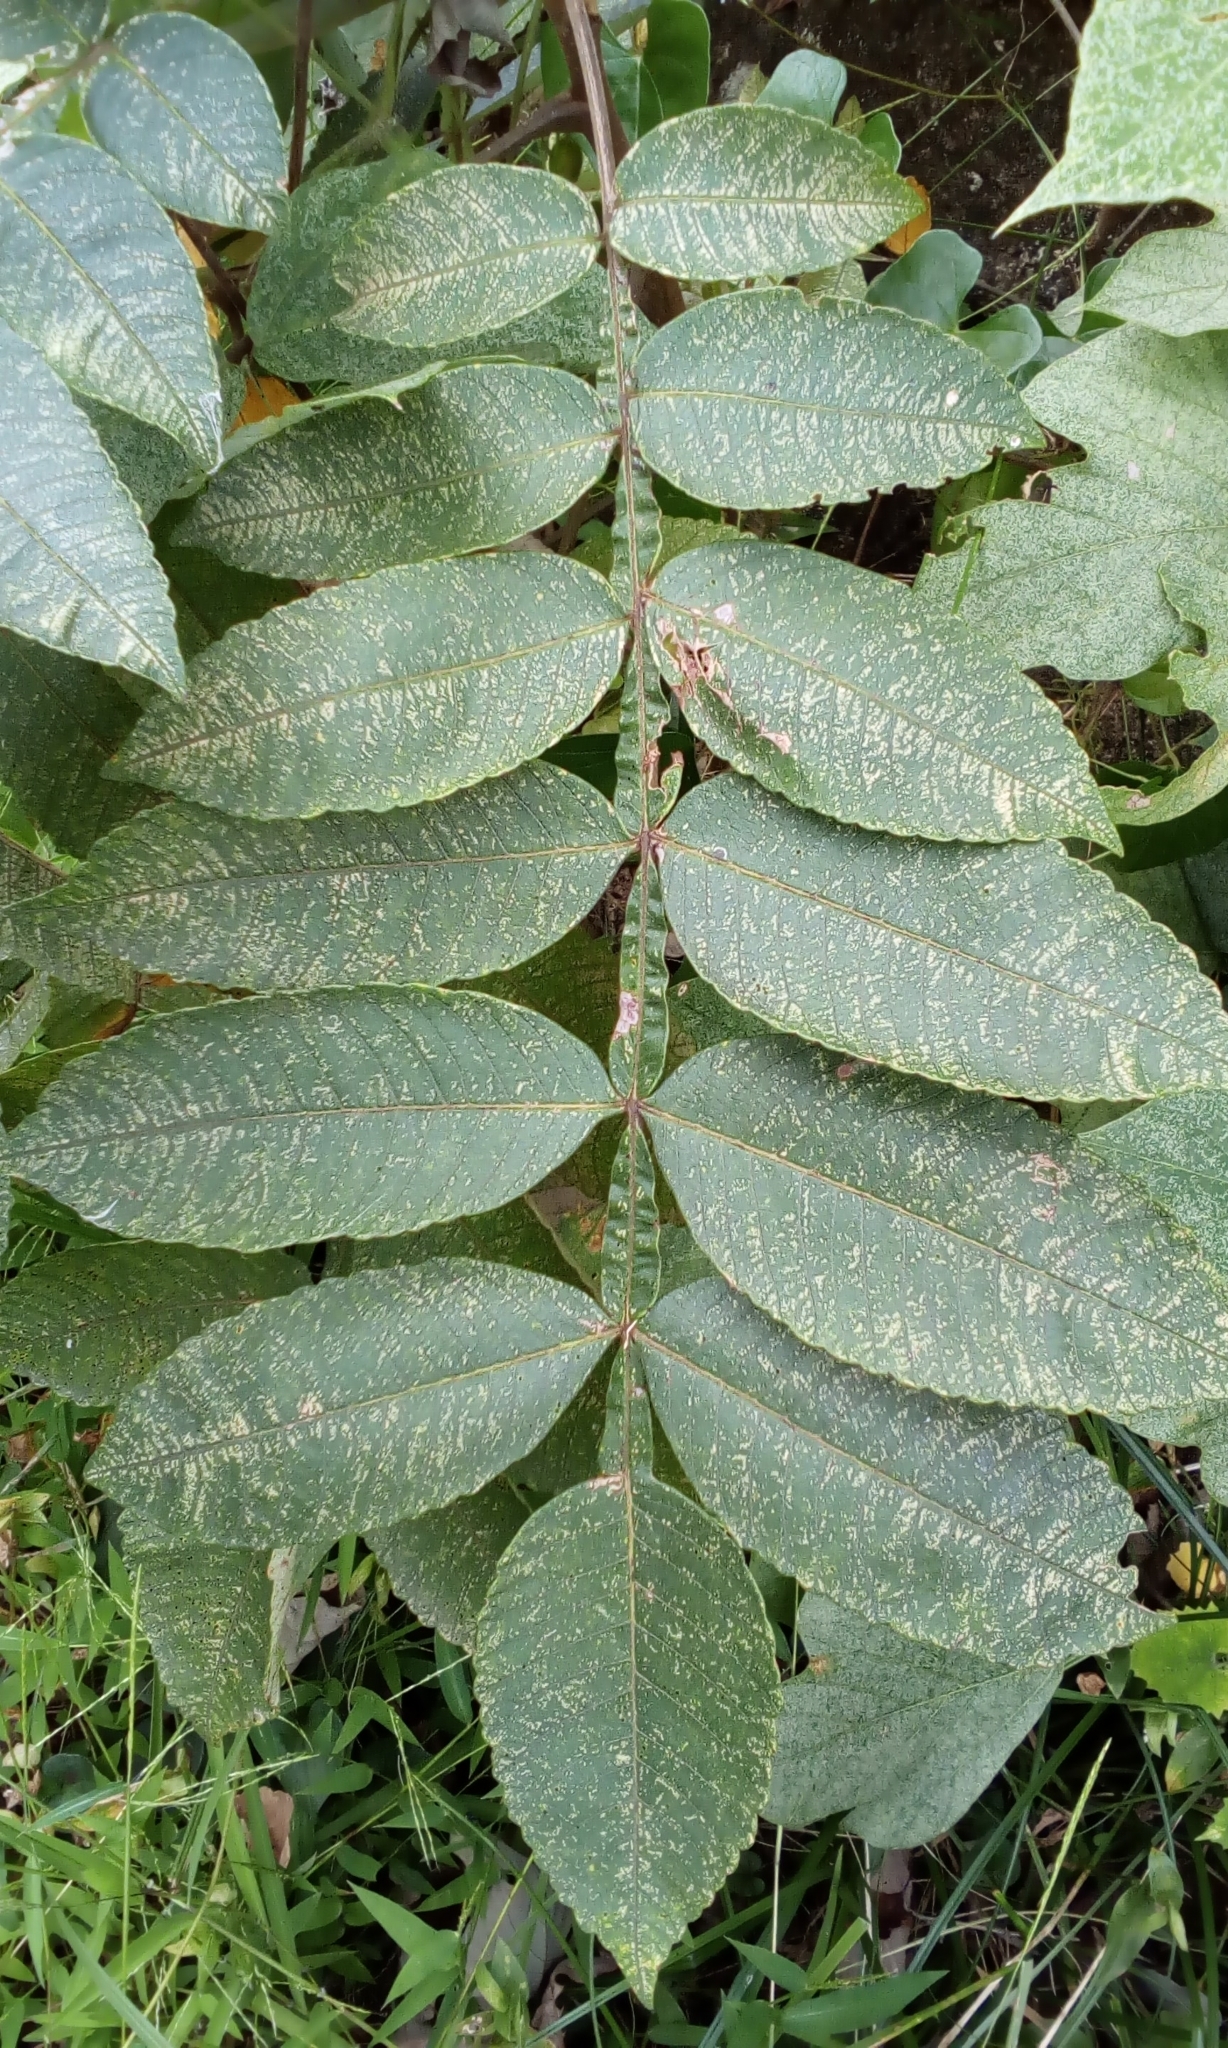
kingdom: Plantae
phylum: Tracheophyta
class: Magnoliopsida
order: Sapindales
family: Anacardiaceae
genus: Rhus
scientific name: Rhus chinensis
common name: Chinese gall
